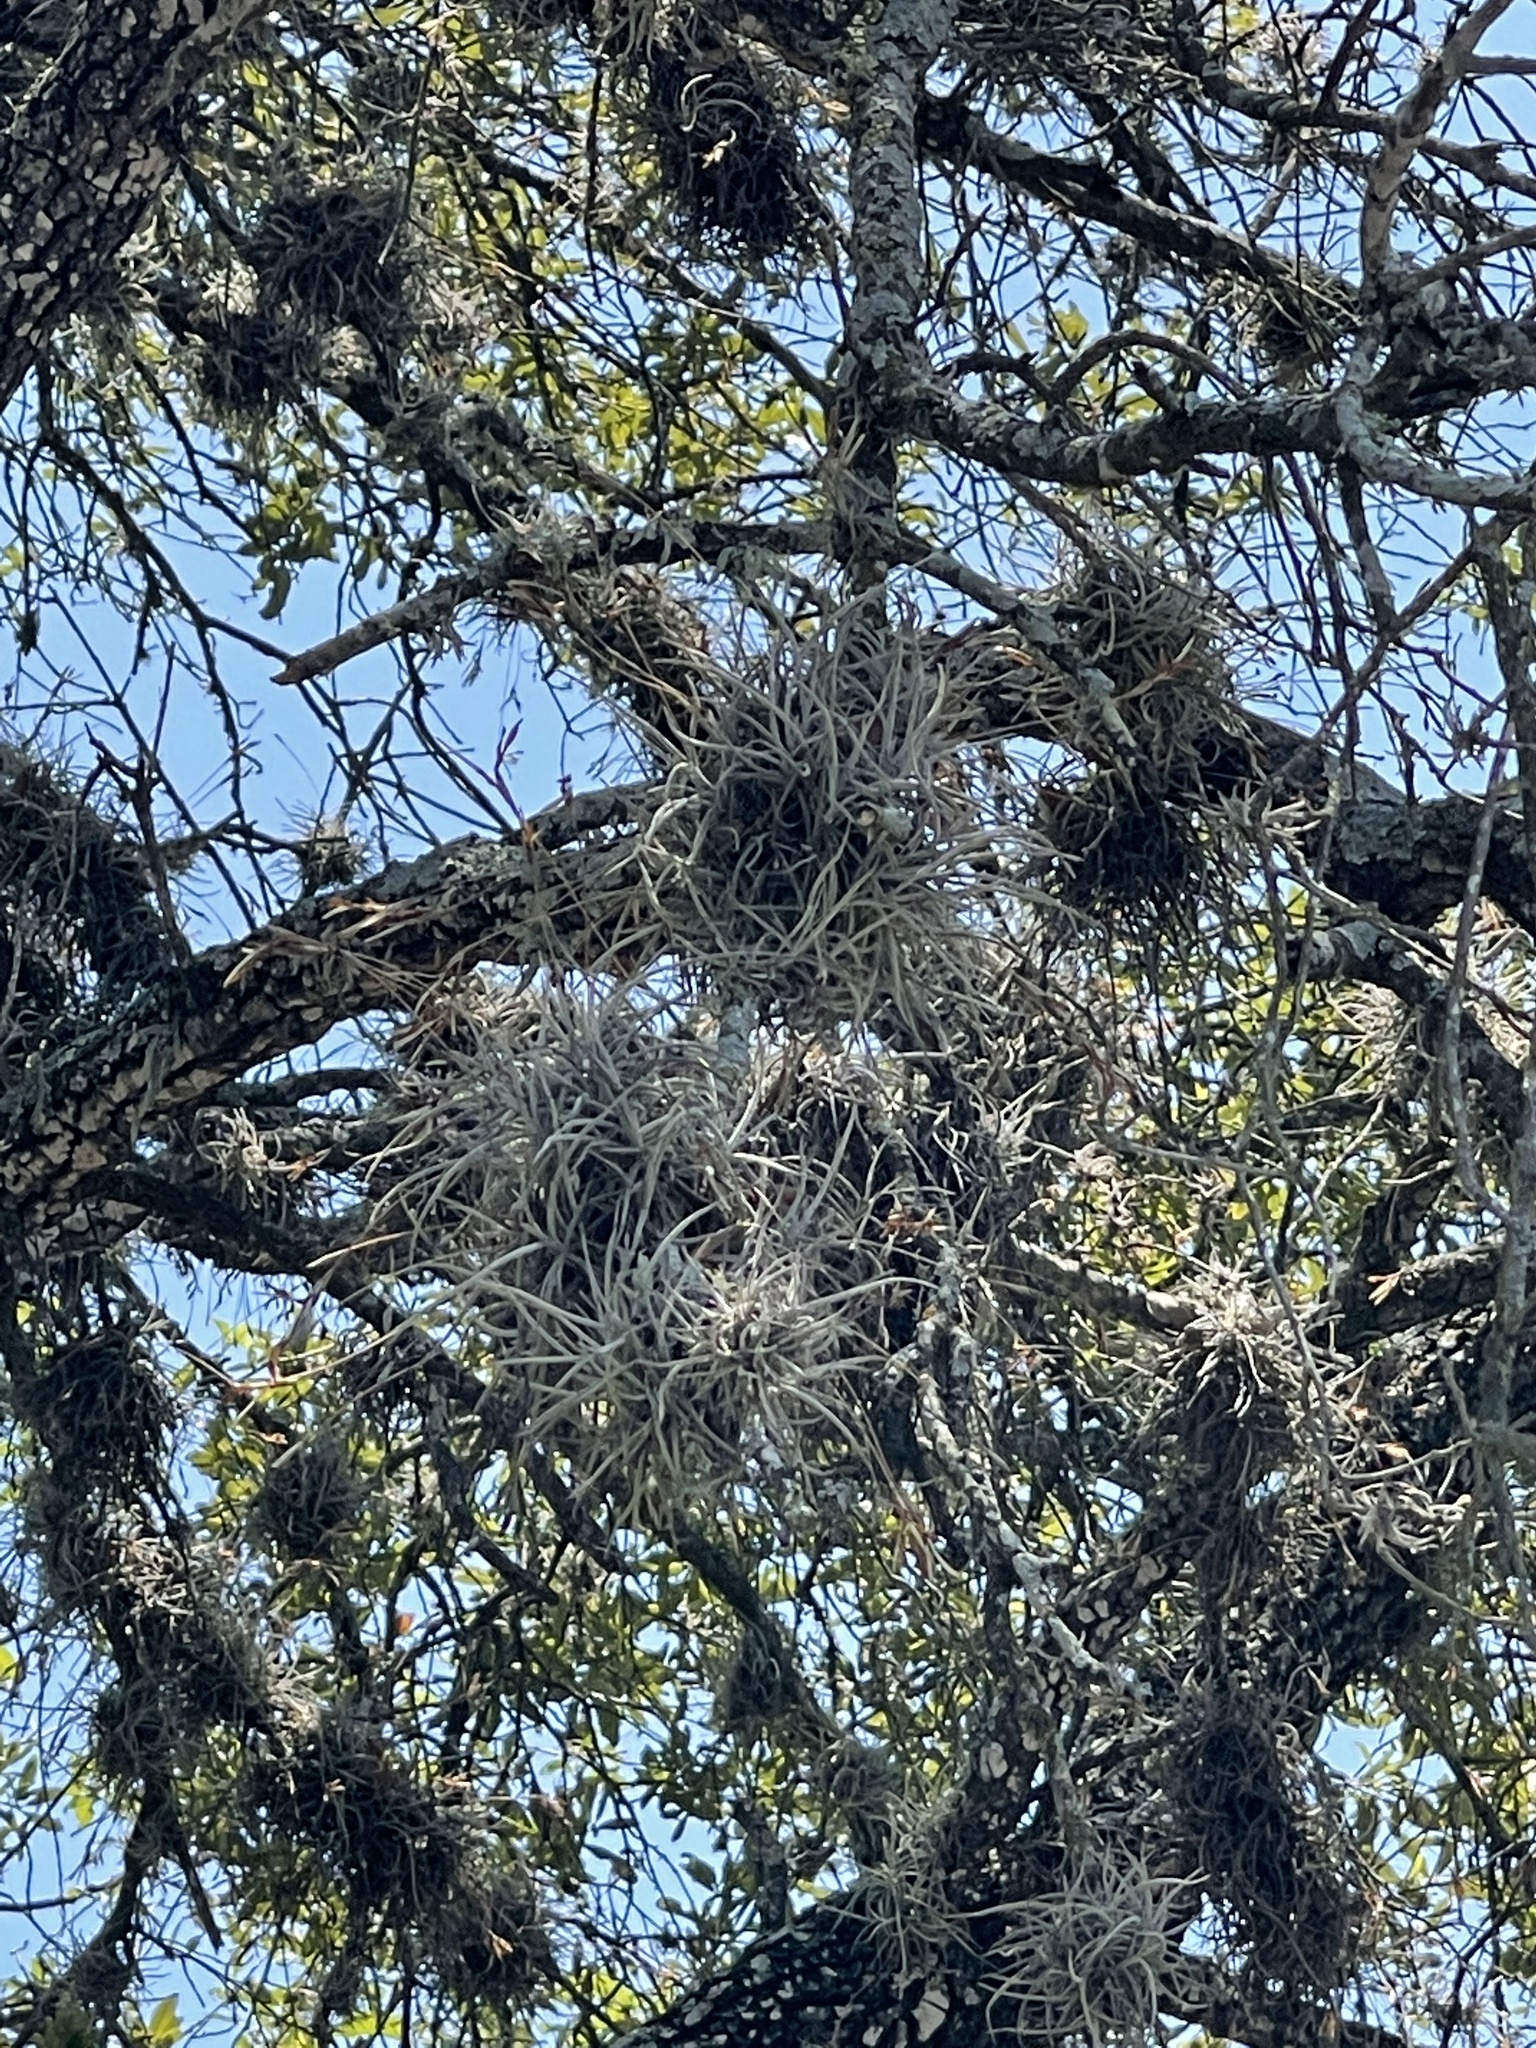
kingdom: Plantae
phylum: Tracheophyta
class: Liliopsida
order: Poales
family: Bromeliaceae
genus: Tillandsia
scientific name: Tillandsia recurvata
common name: Small ballmoss
